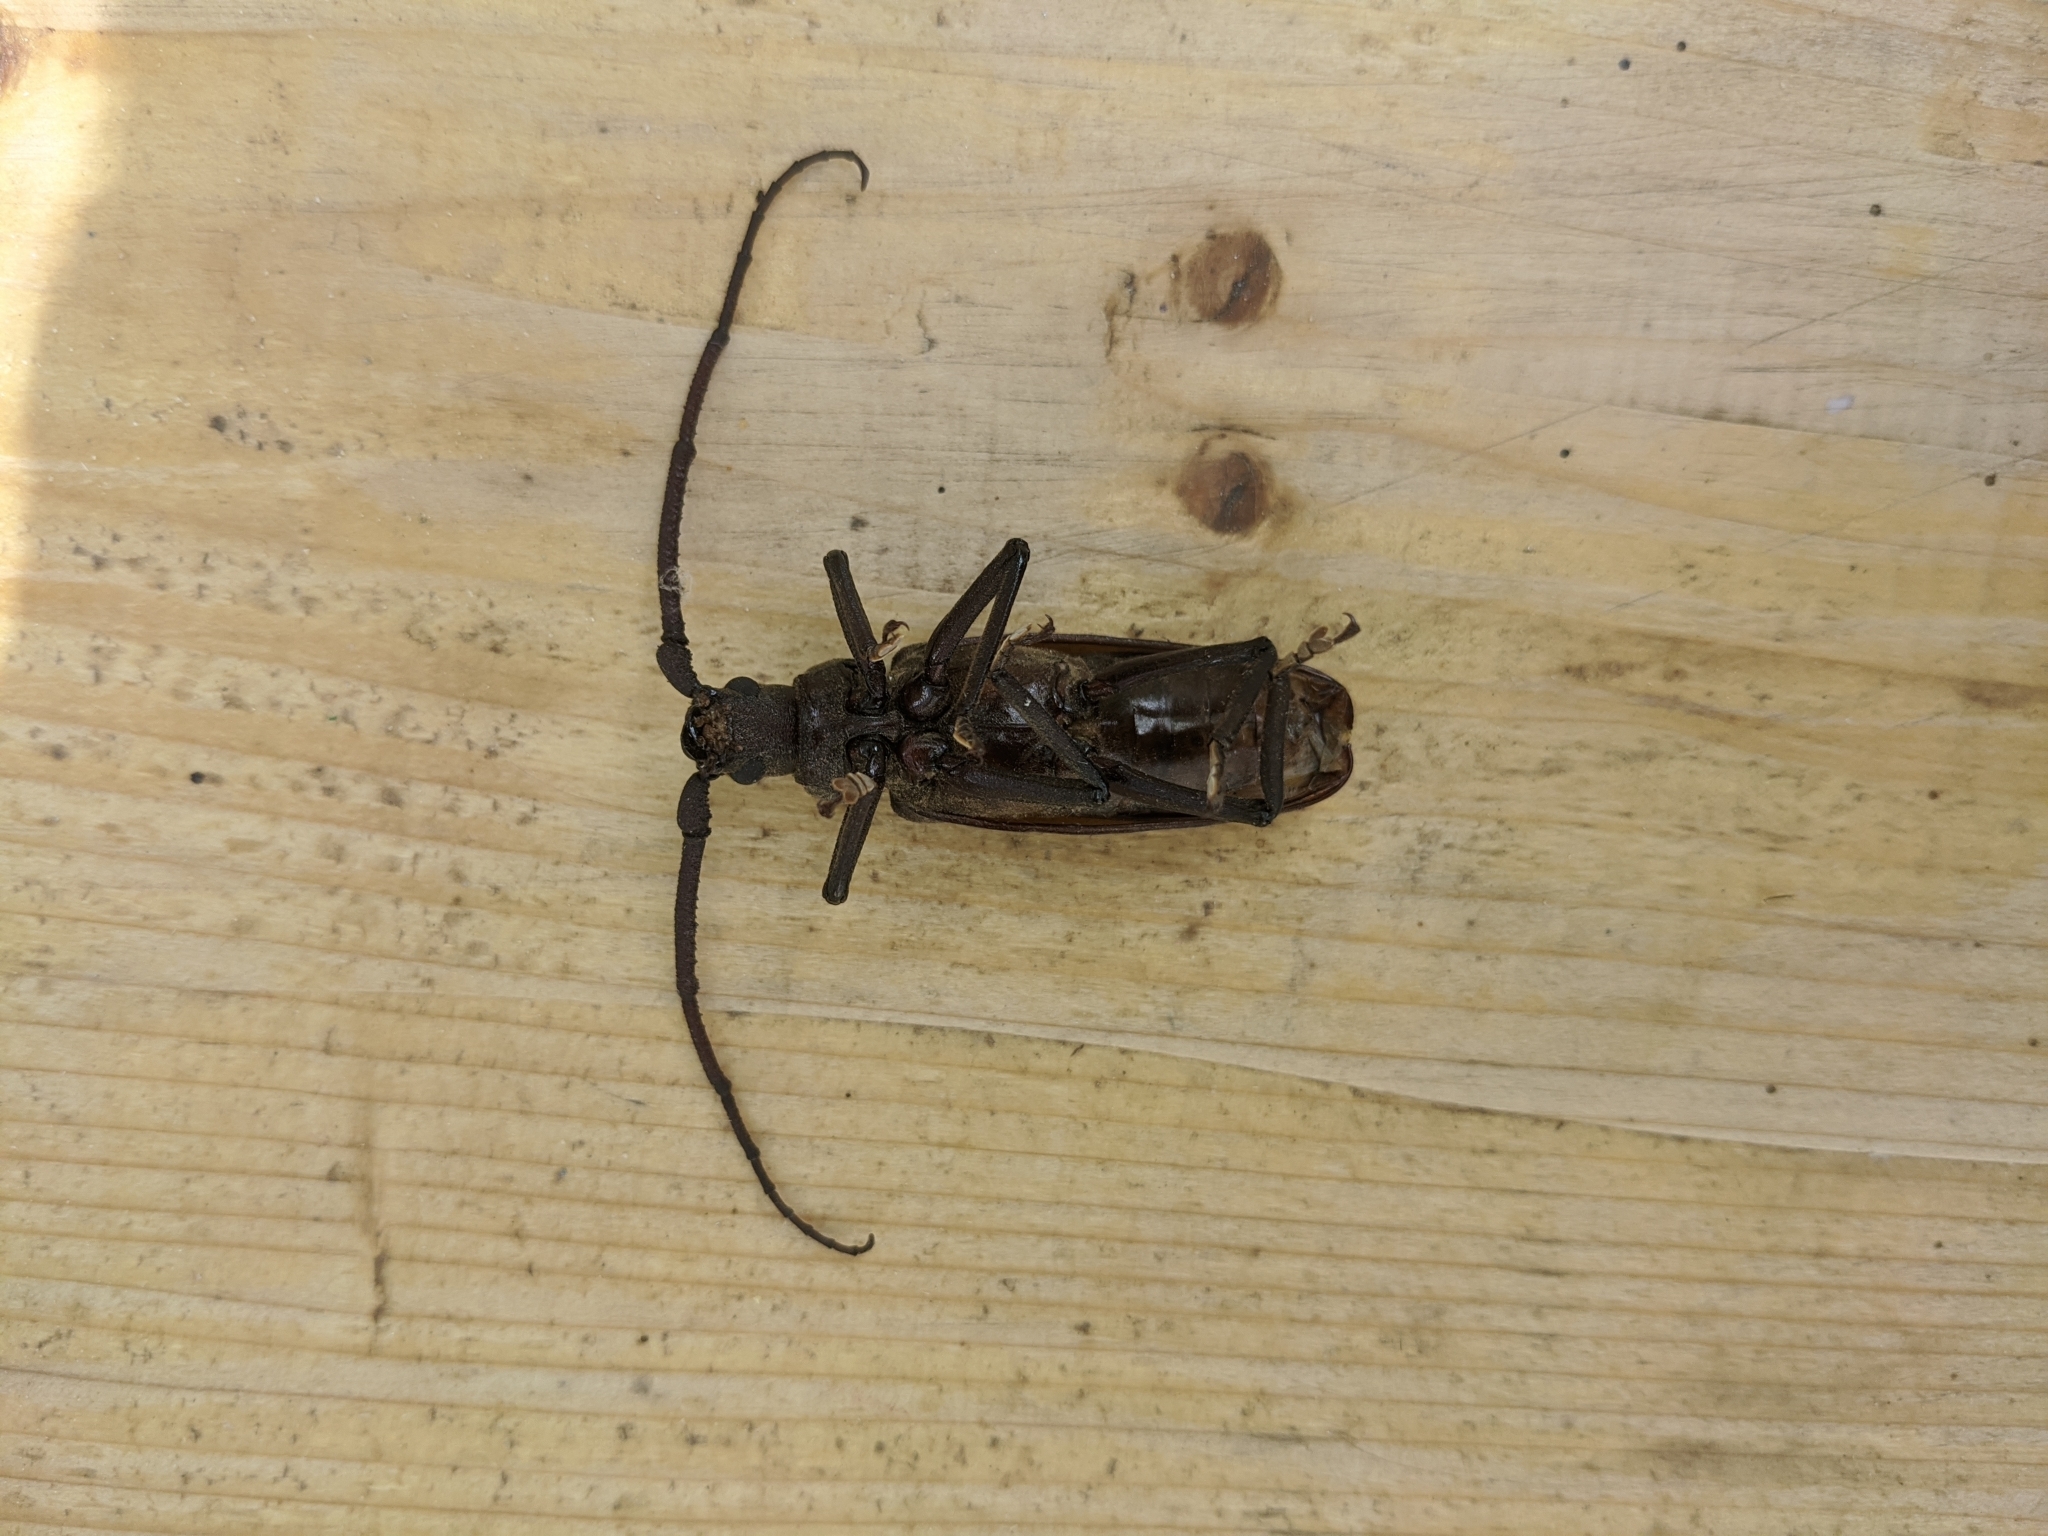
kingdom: Animalia
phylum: Arthropoda
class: Insecta
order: Coleoptera
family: Cerambycidae
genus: Aegosoma
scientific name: Aegosoma scabricorne
